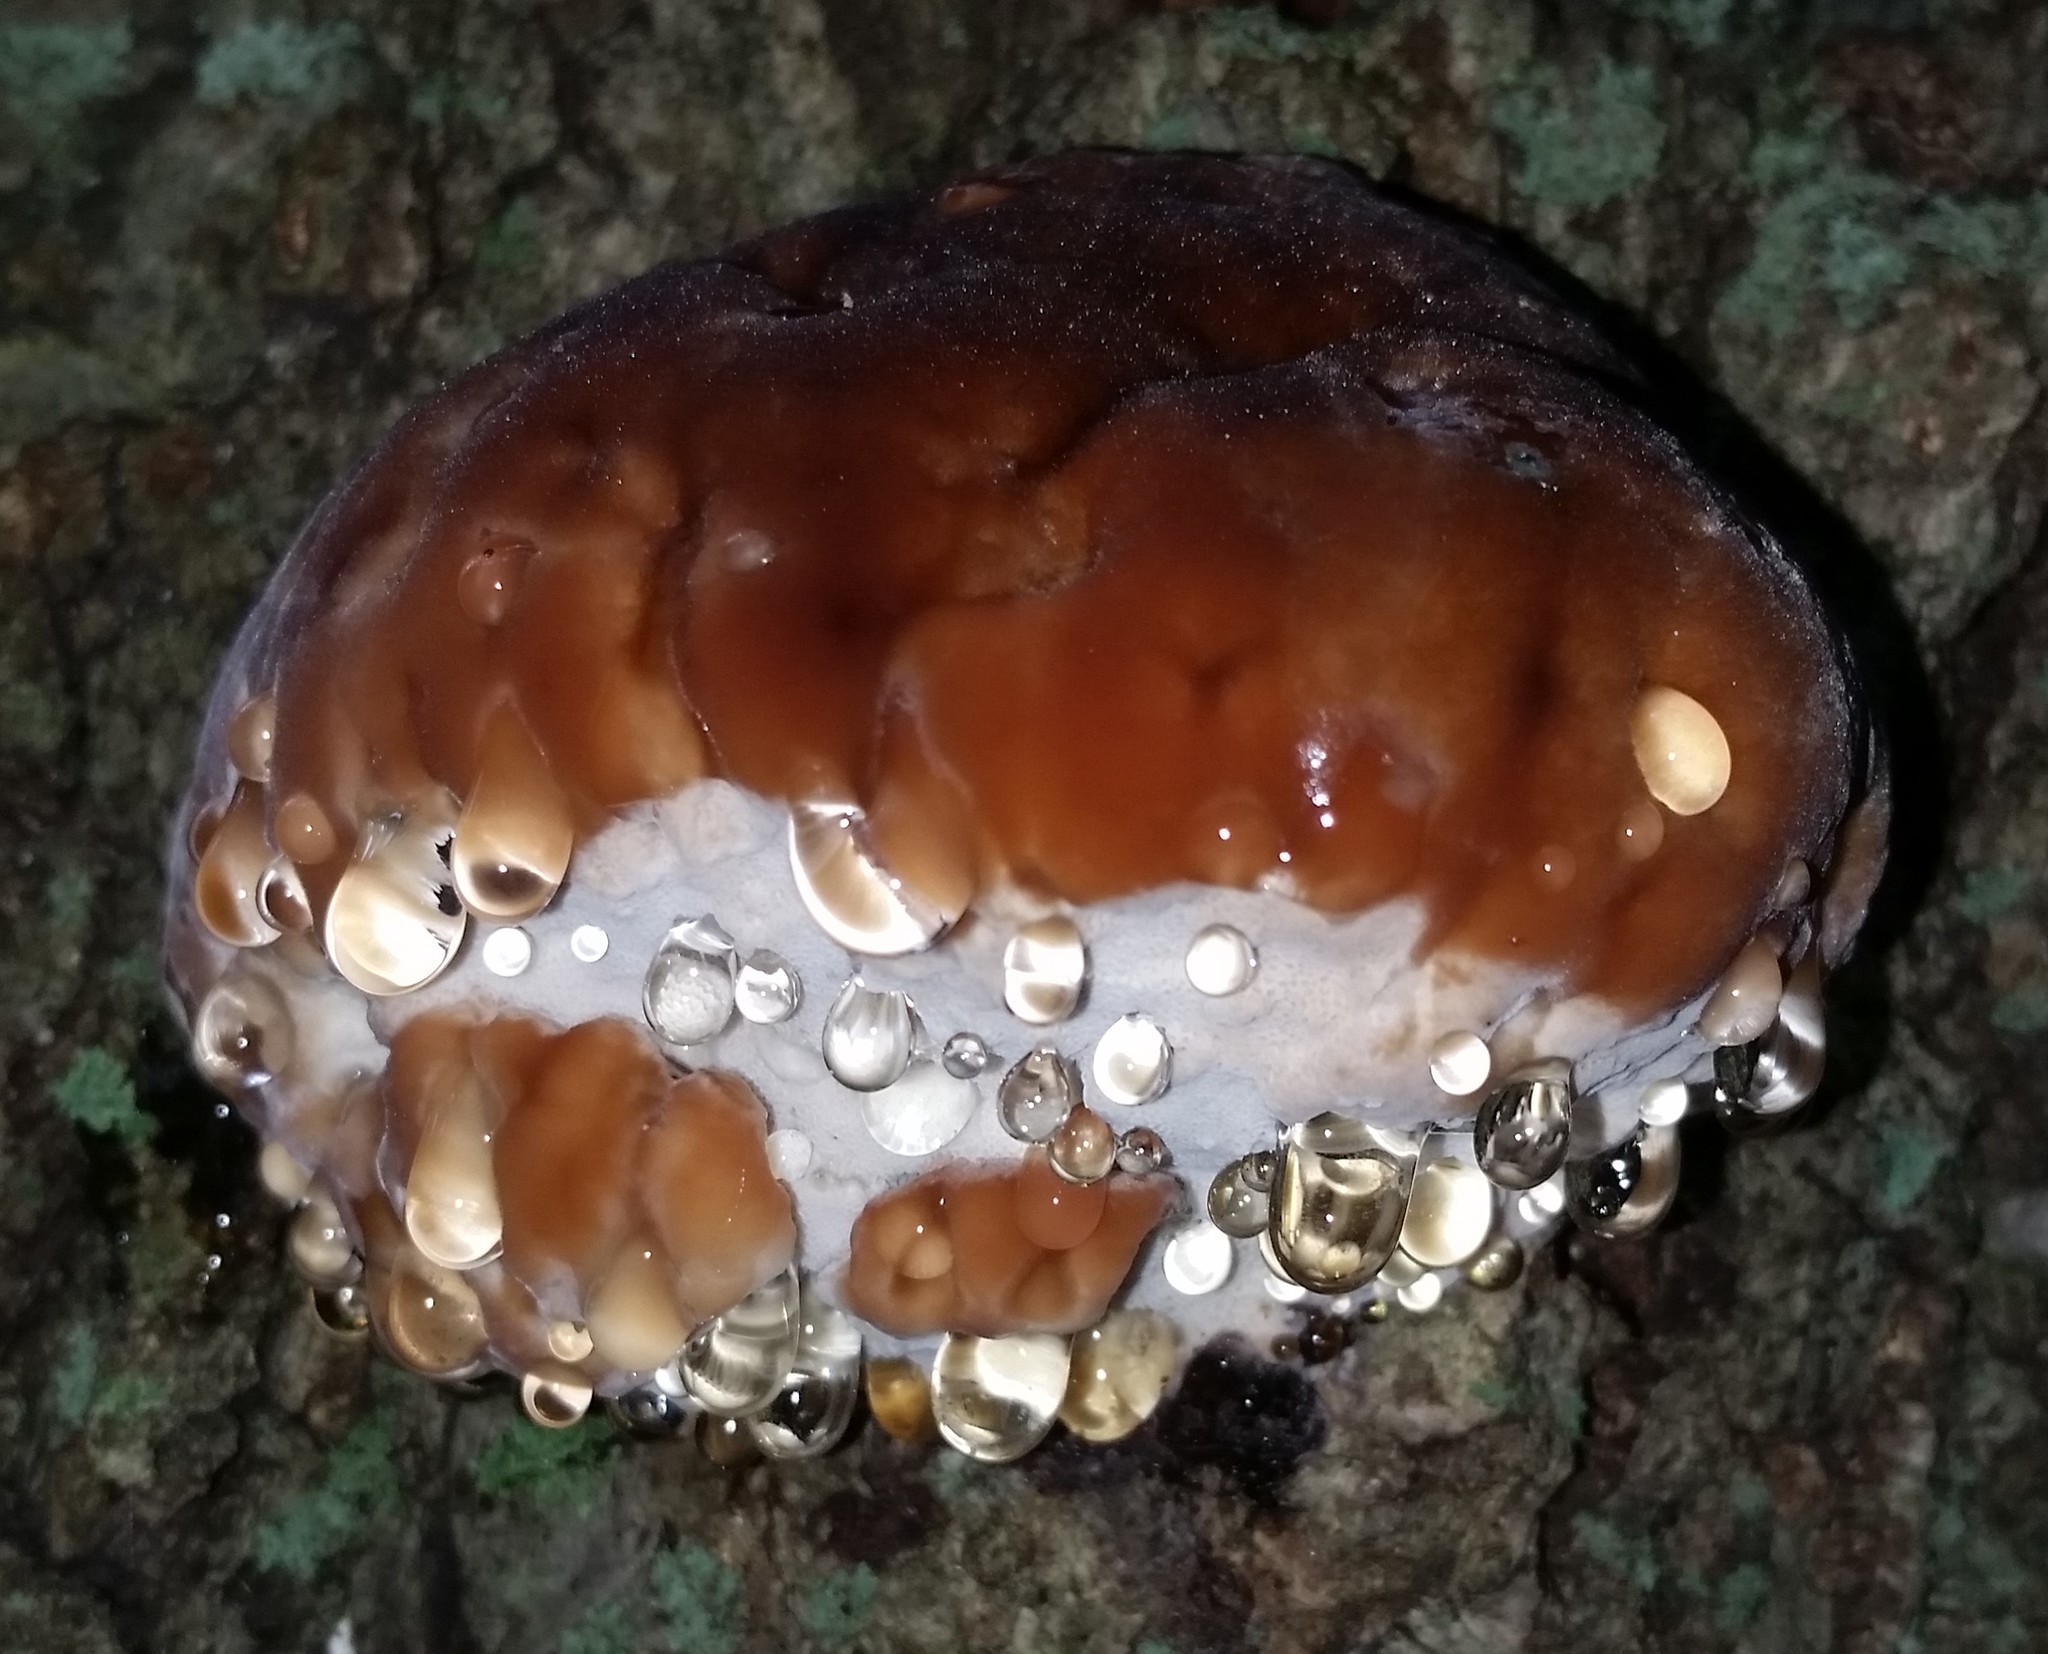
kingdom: Fungi
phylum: Basidiomycota
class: Agaricomycetes
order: Polyporales
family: Fomitopsidaceae
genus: Niveoporofomes
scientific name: Niveoporofomes spraguei
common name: Green cheese polypore
